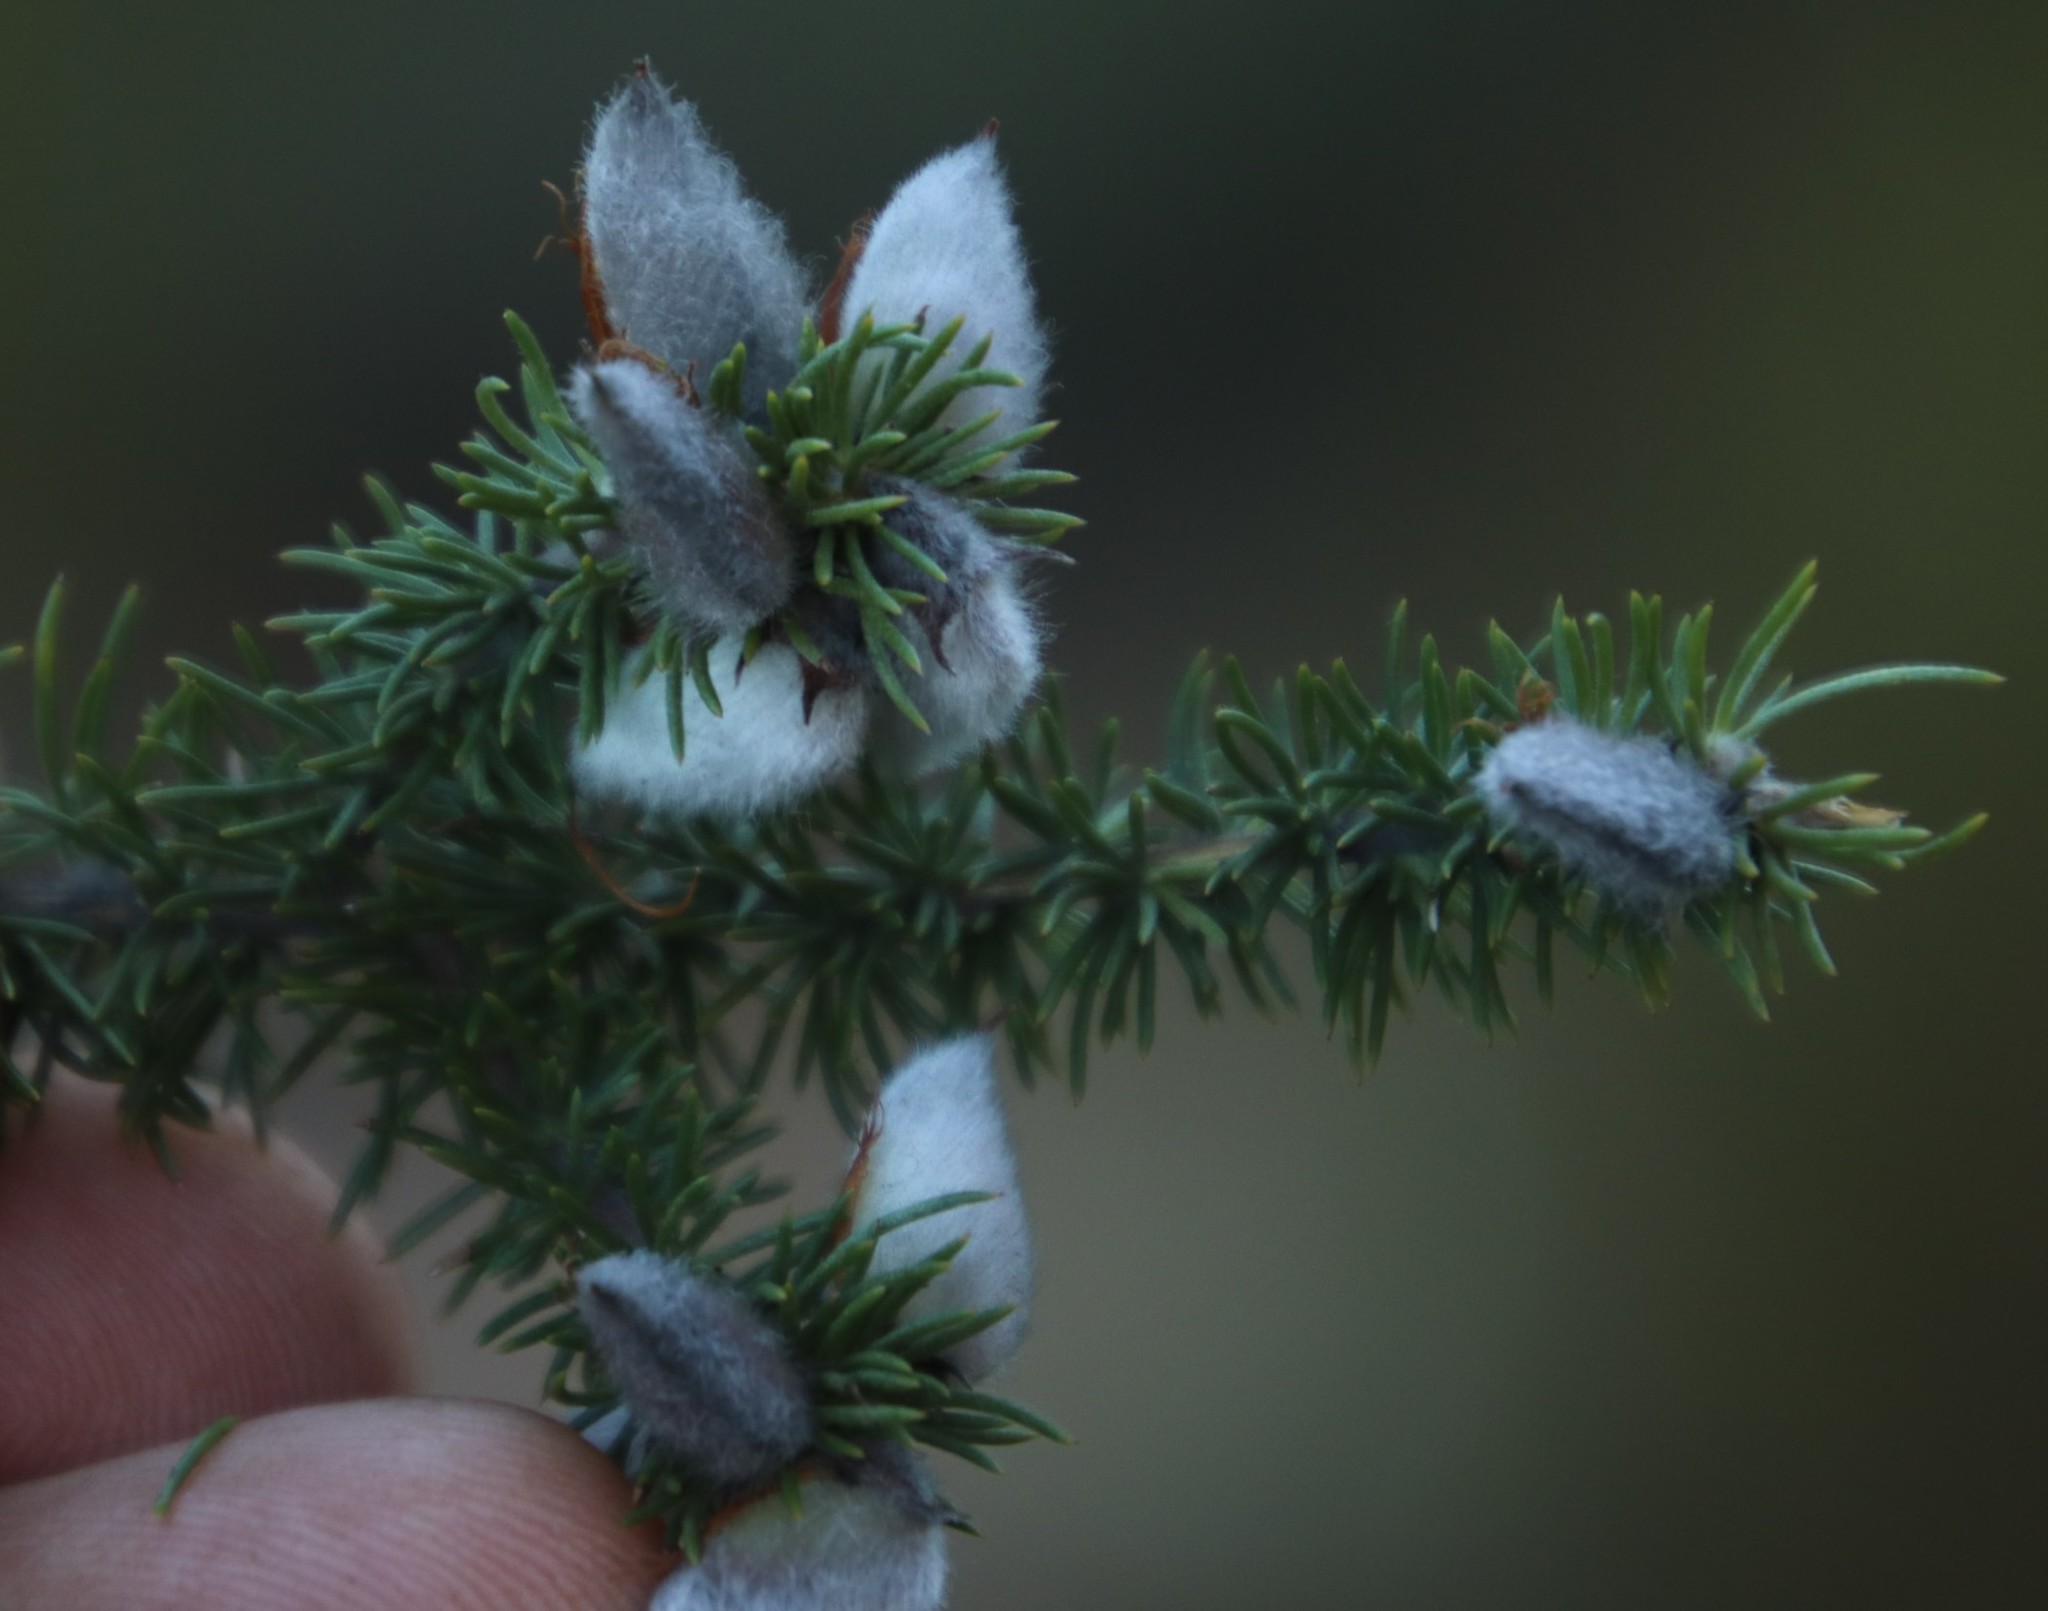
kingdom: Plantae
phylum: Tracheophyta
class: Magnoliopsida
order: Fabales
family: Fabaceae
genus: Aspalathus
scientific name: Aspalathus laricifolia
